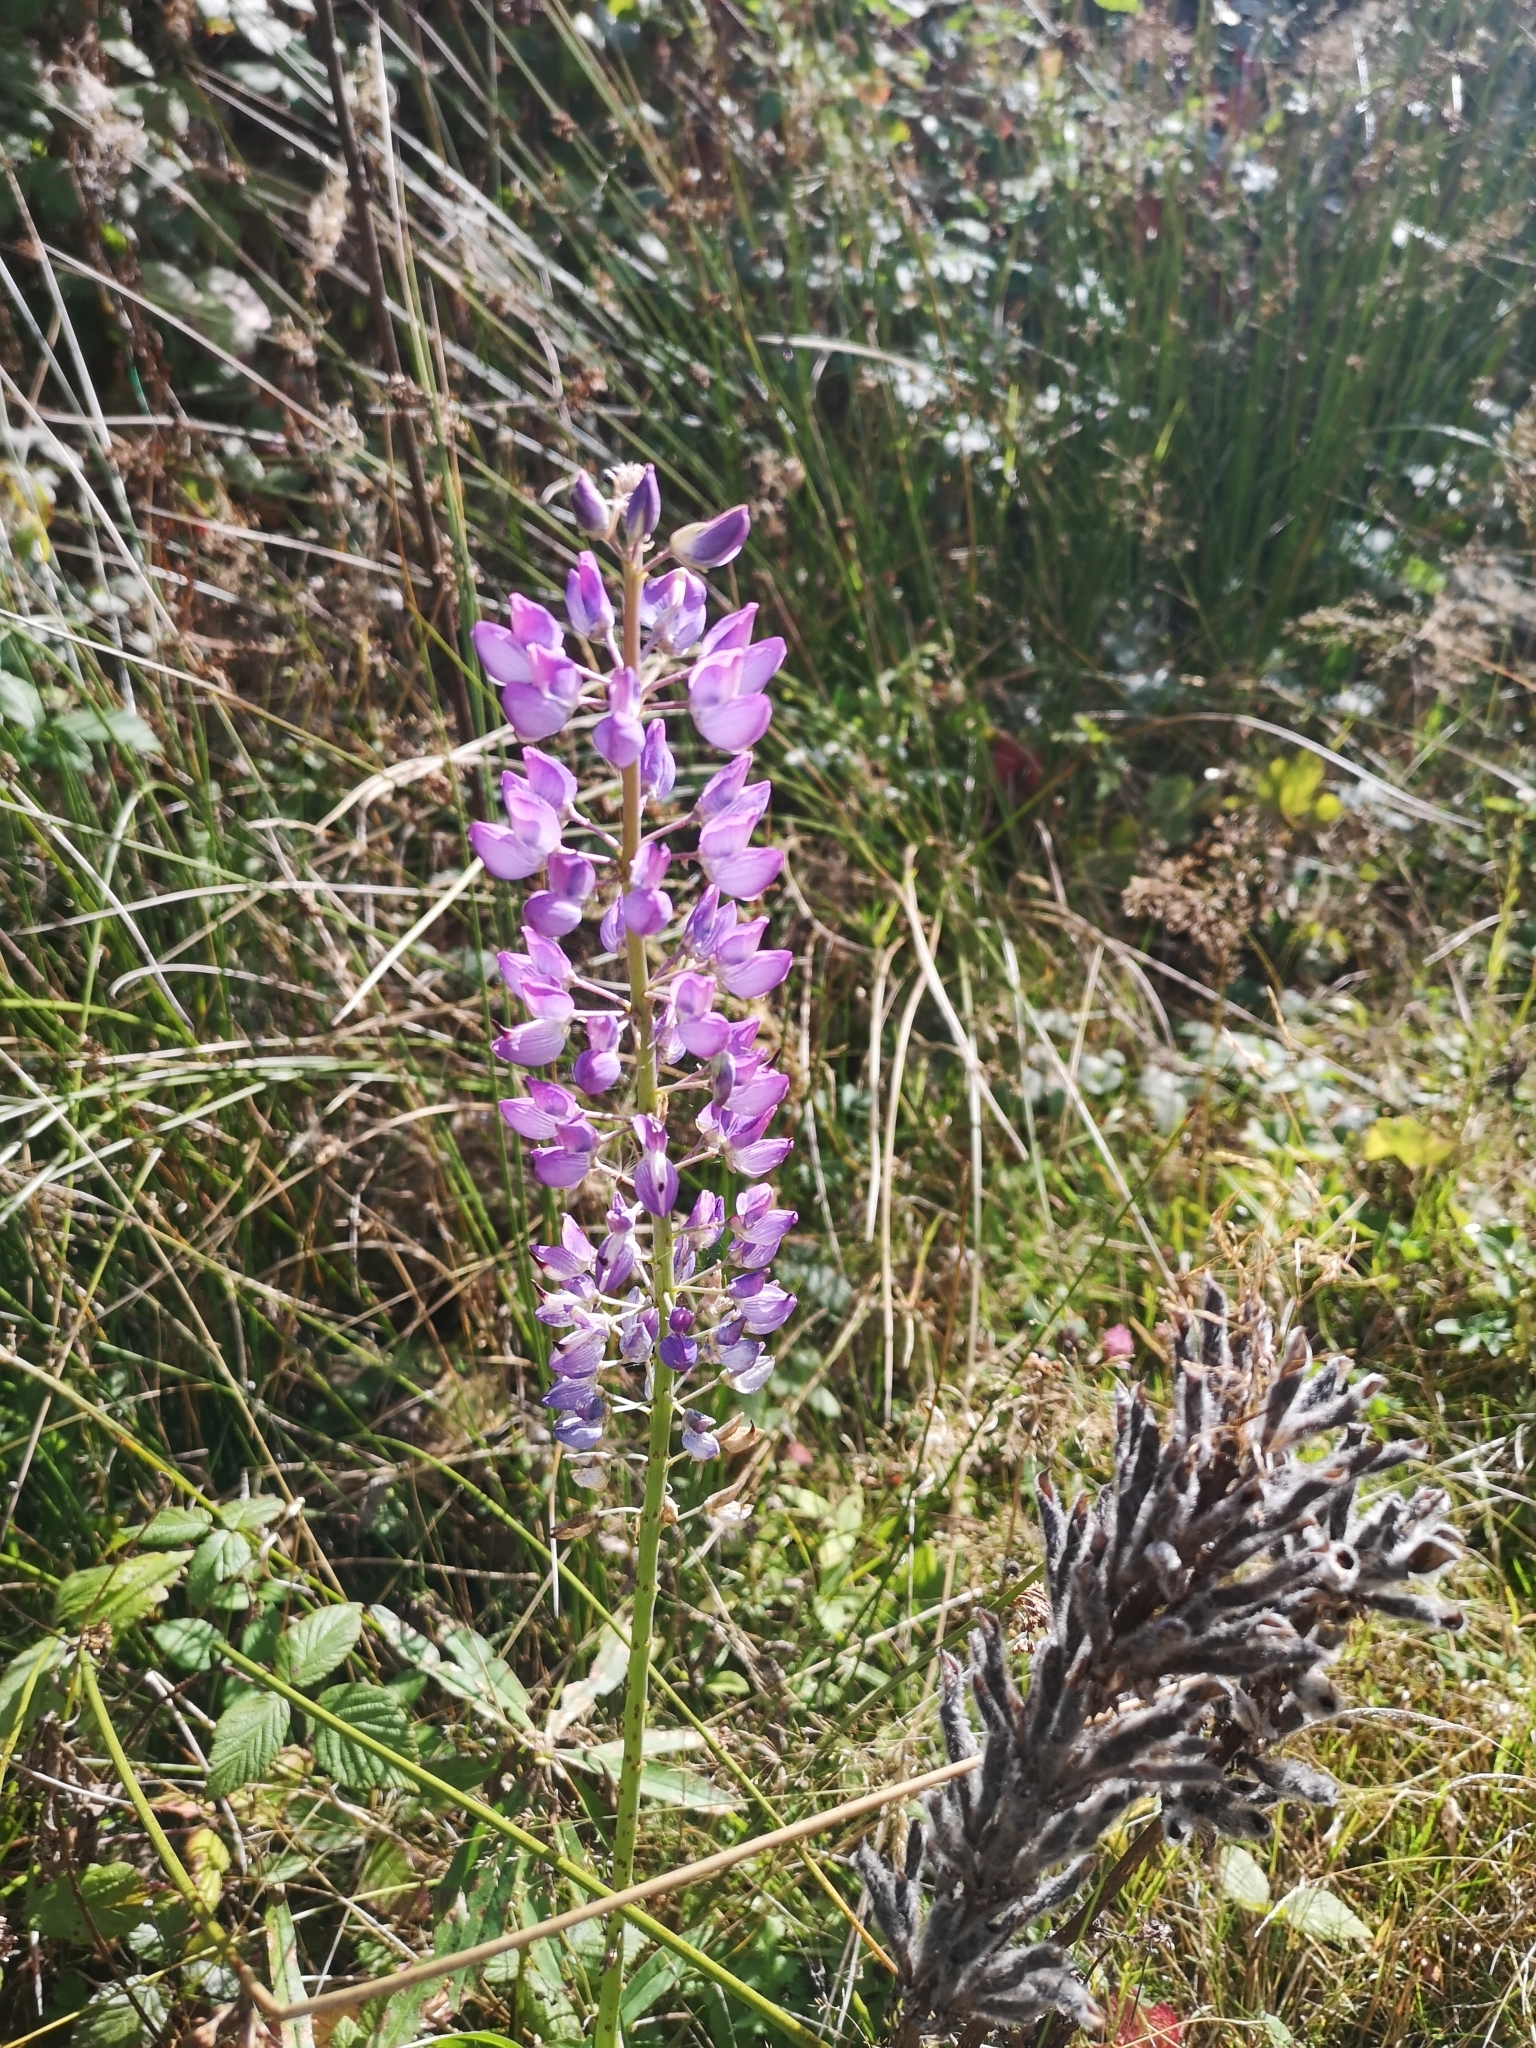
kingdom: Plantae
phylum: Tracheophyta
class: Magnoliopsida
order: Fabales
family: Fabaceae
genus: Lupinus
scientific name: Lupinus polyphyllus
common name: Garden lupin
